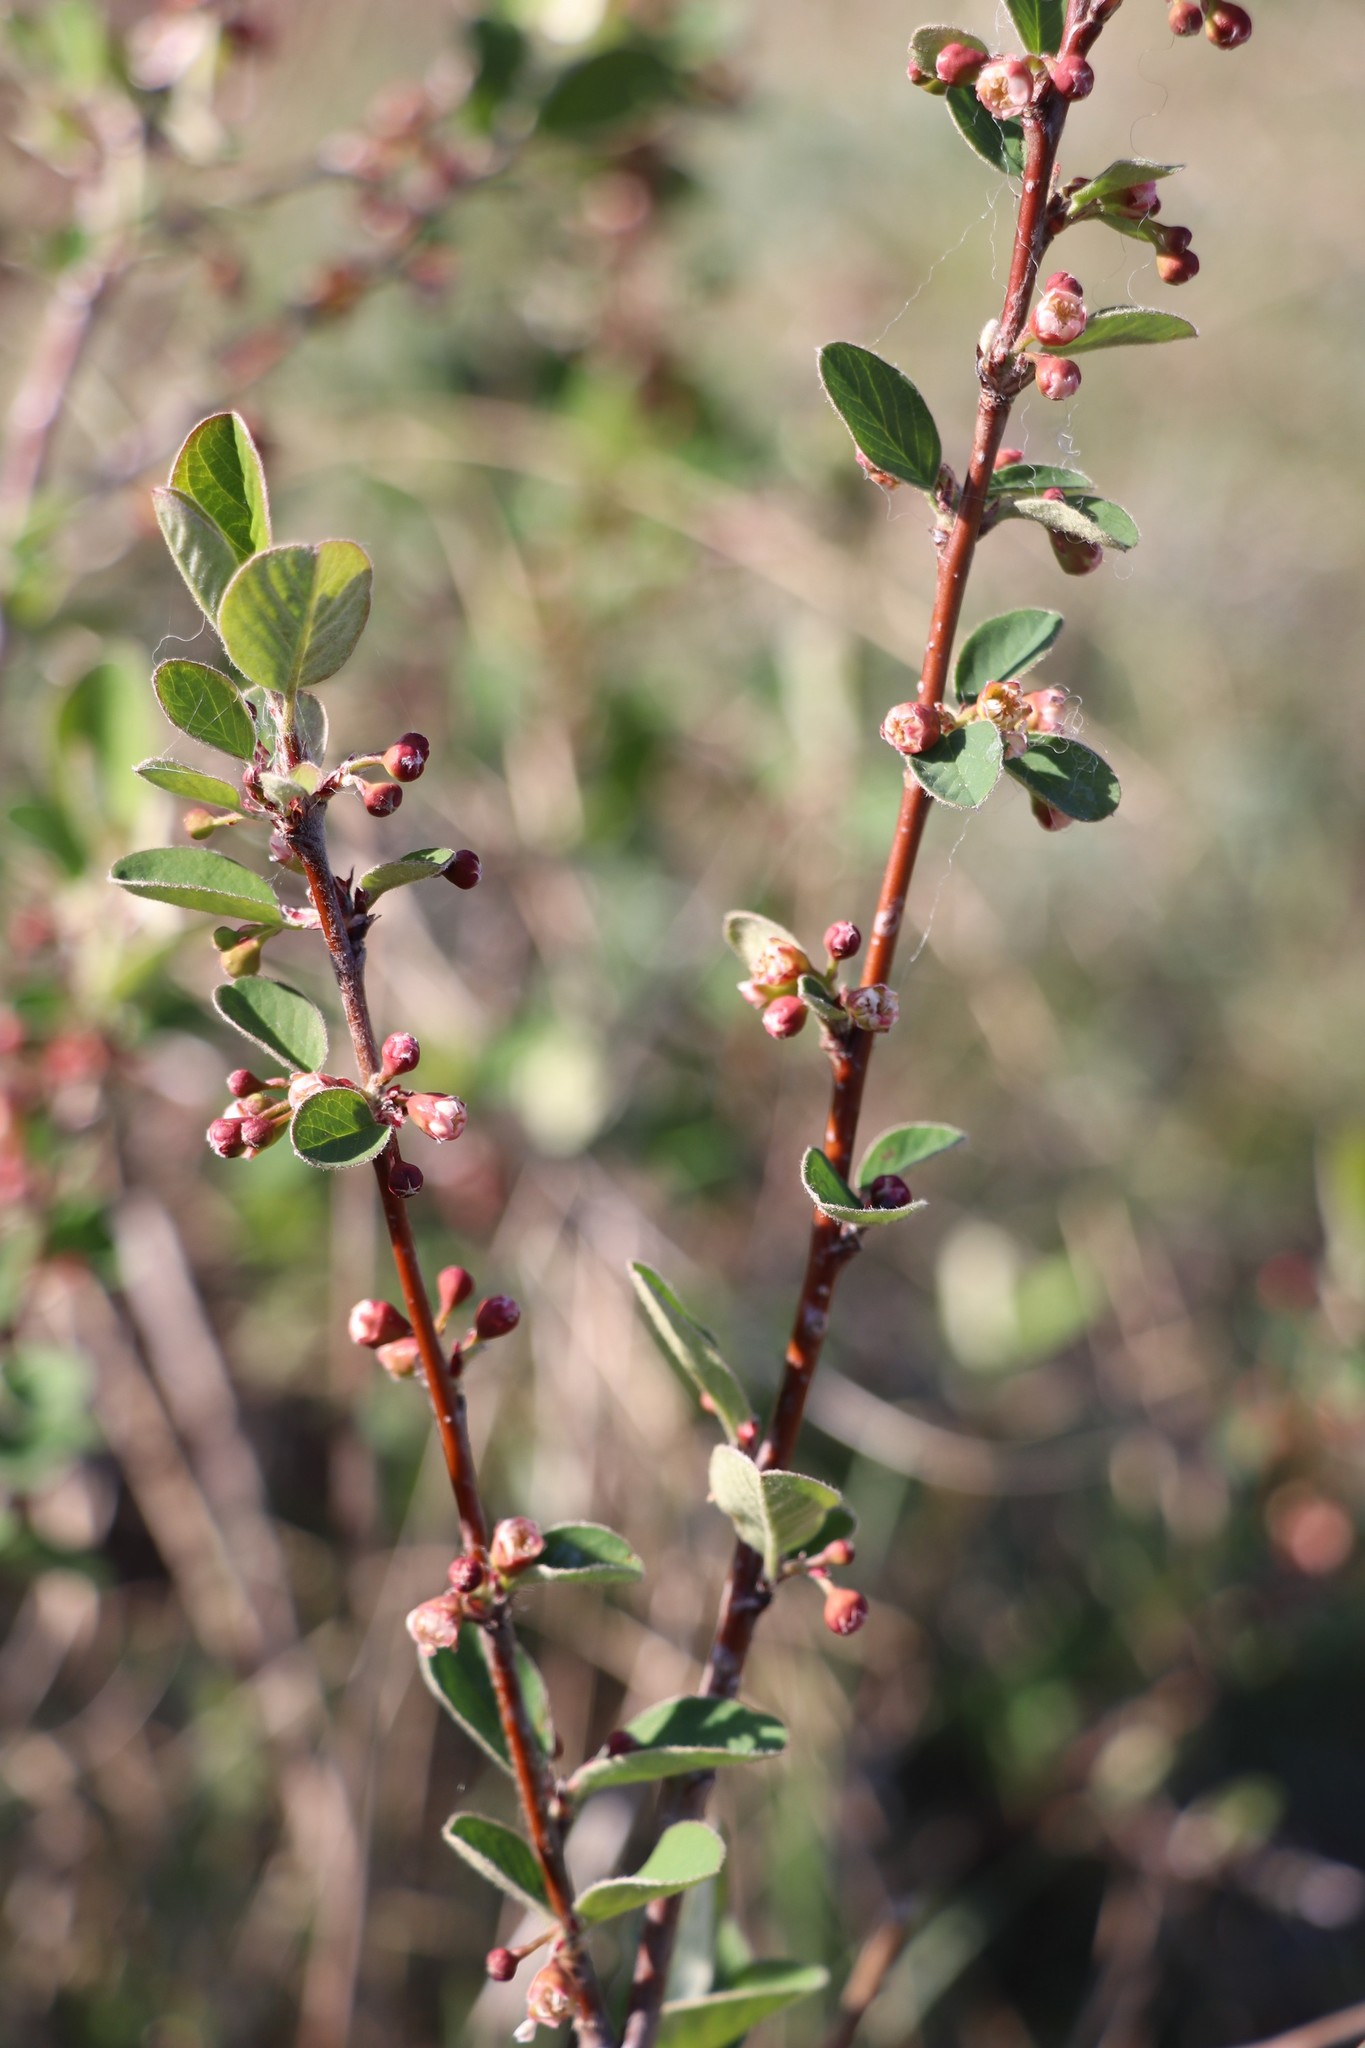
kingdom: Plantae
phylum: Tracheophyta
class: Magnoliopsida
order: Rosales
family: Rosaceae
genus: Cotoneaster
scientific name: Cotoneaster melanocarpus
